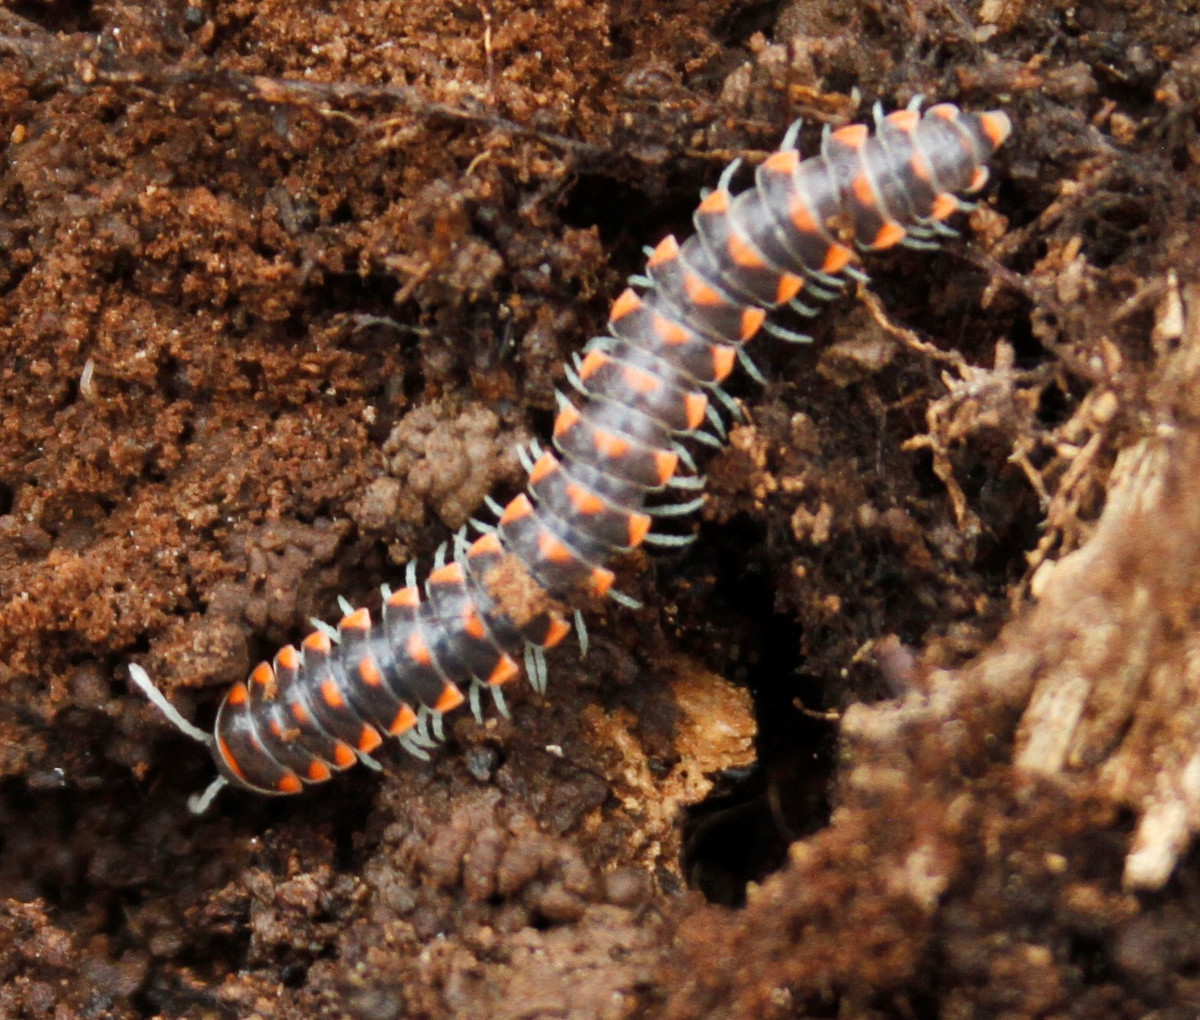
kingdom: Animalia
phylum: Arthropoda
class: Diplopoda
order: Polydesmida
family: Xystodesmidae
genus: Euryurus
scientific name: Euryurus carolinensis
